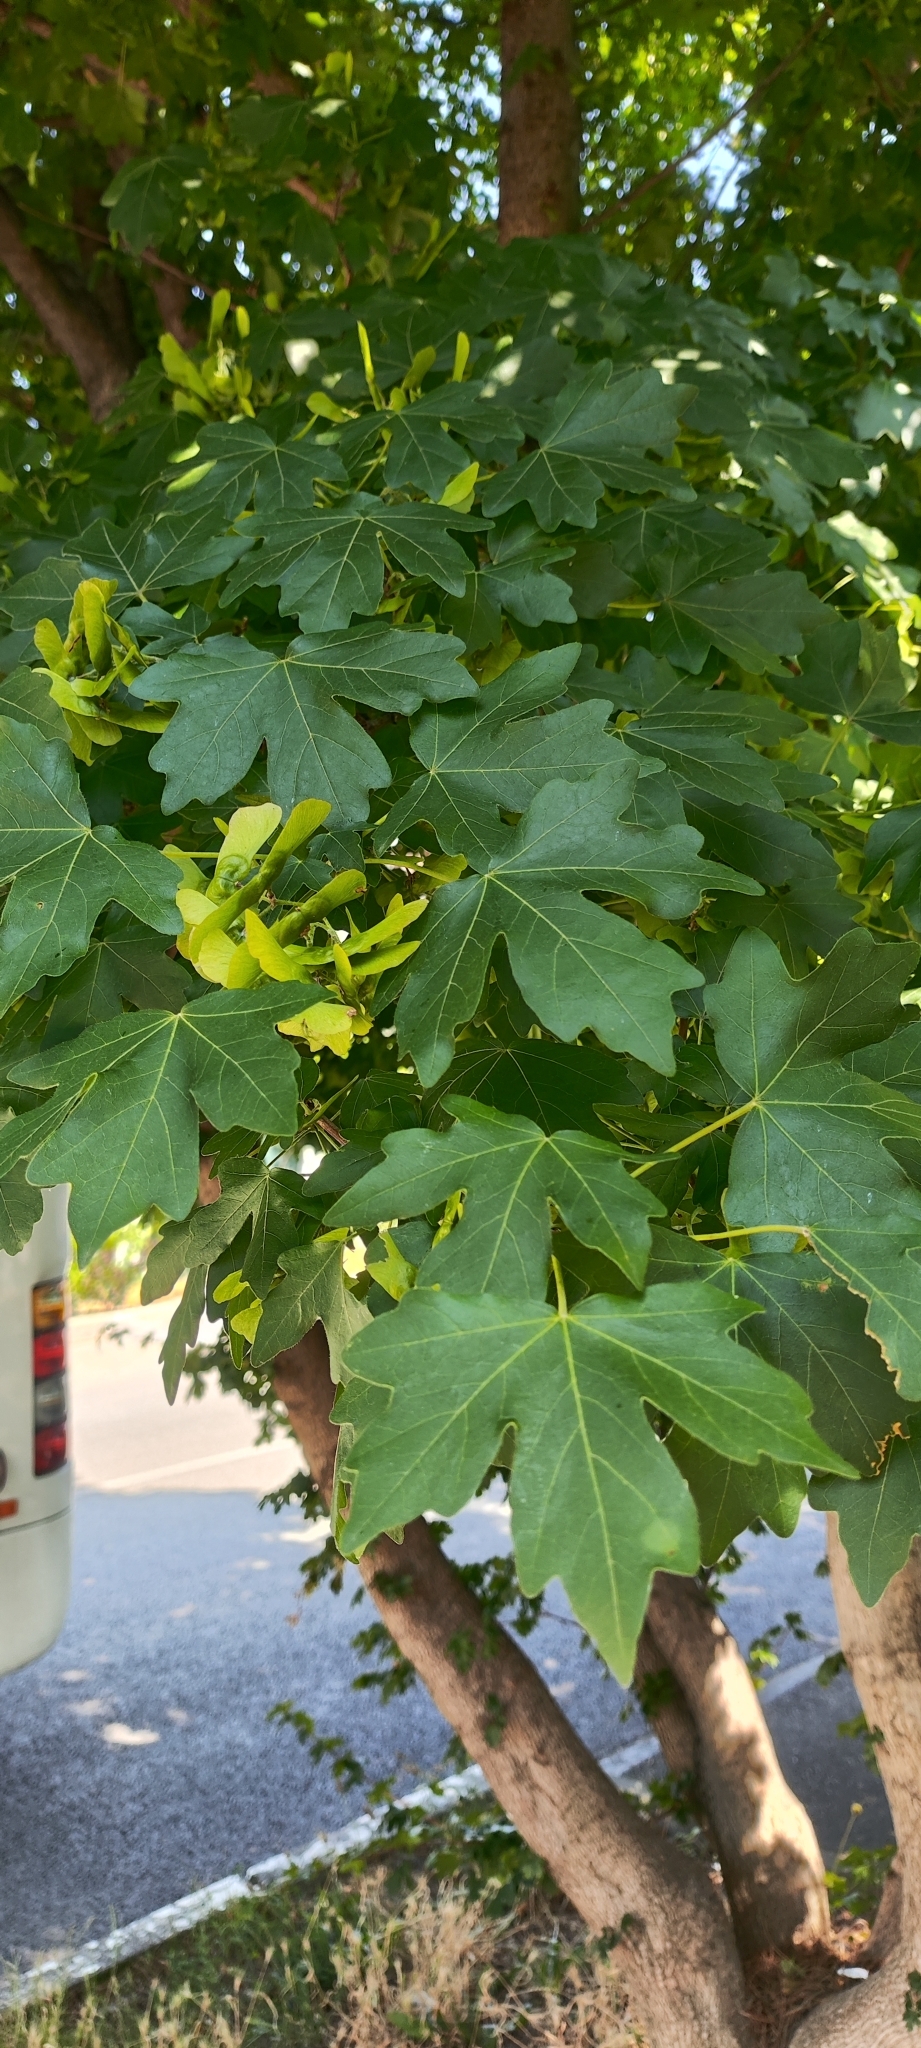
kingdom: Plantae
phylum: Tracheophyta
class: Magnoliopsida
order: Sapindales
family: Sapindaceae
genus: Acer
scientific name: Acer campestre
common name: Field maple
